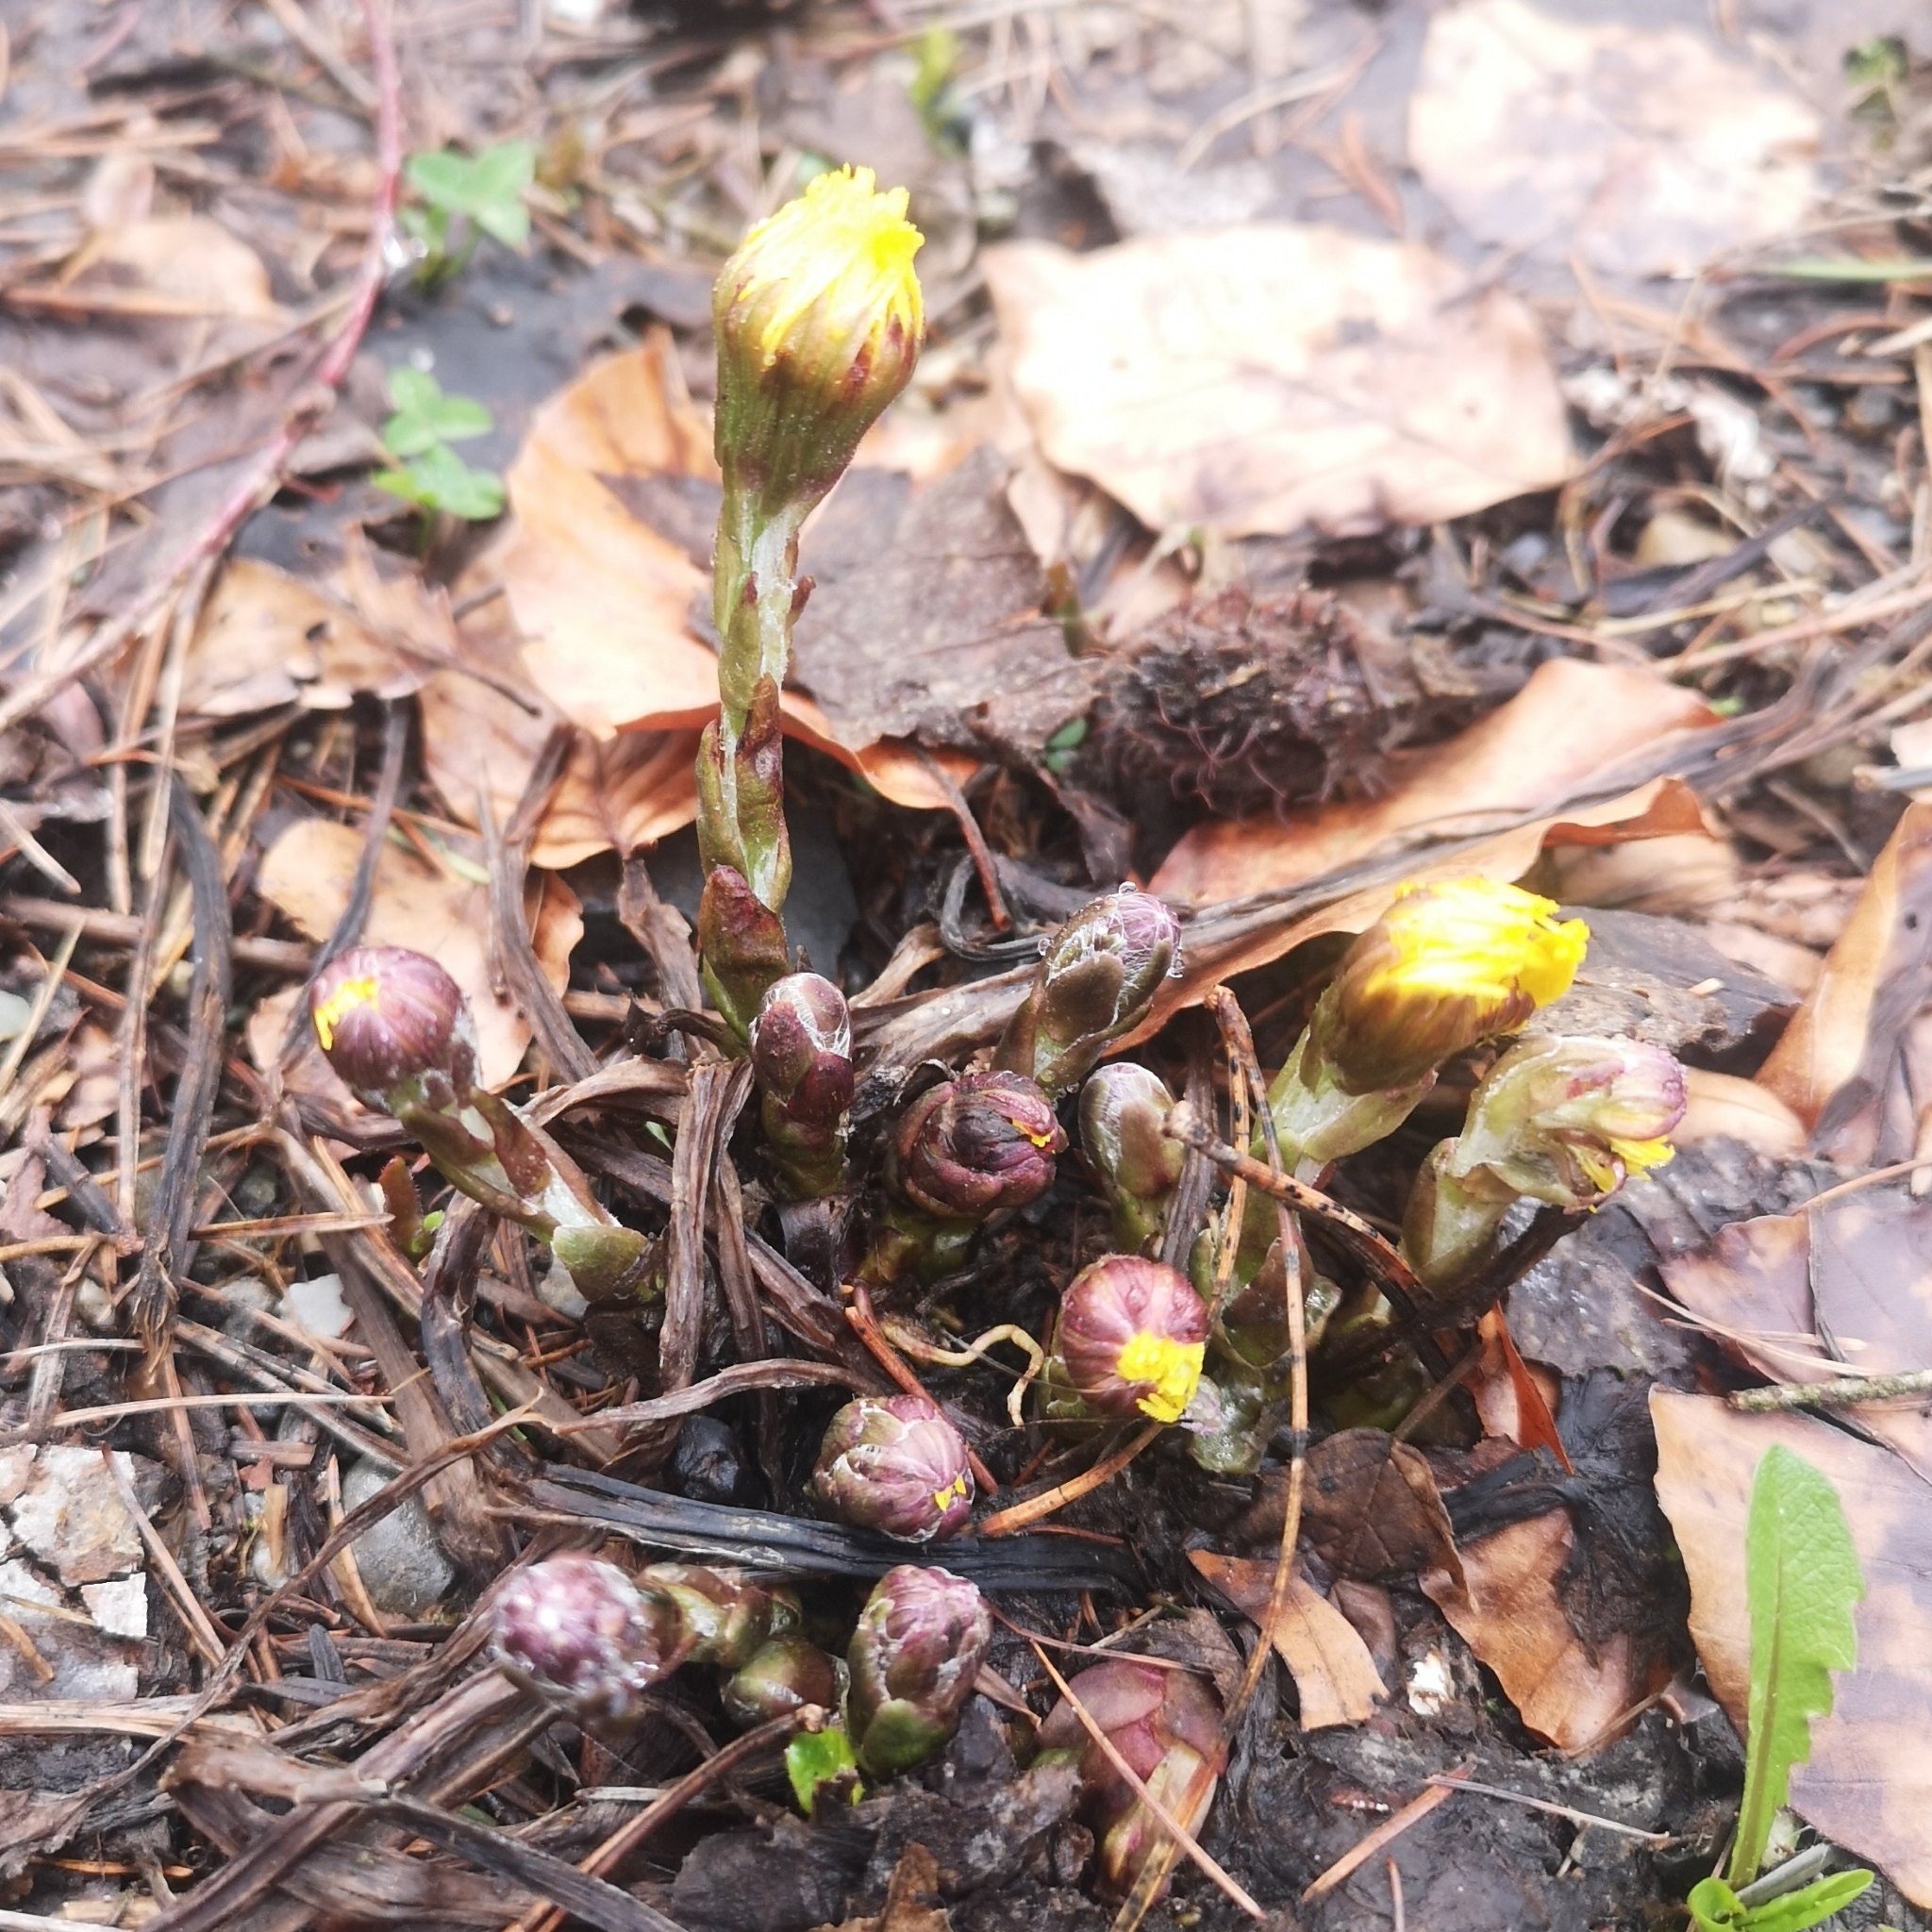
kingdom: Plantae
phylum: Tracheophyta
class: Magnoliopsida
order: Asterales
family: Asteraceae
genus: Tussilago
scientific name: Tussilago farfara
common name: Coltsfoot
